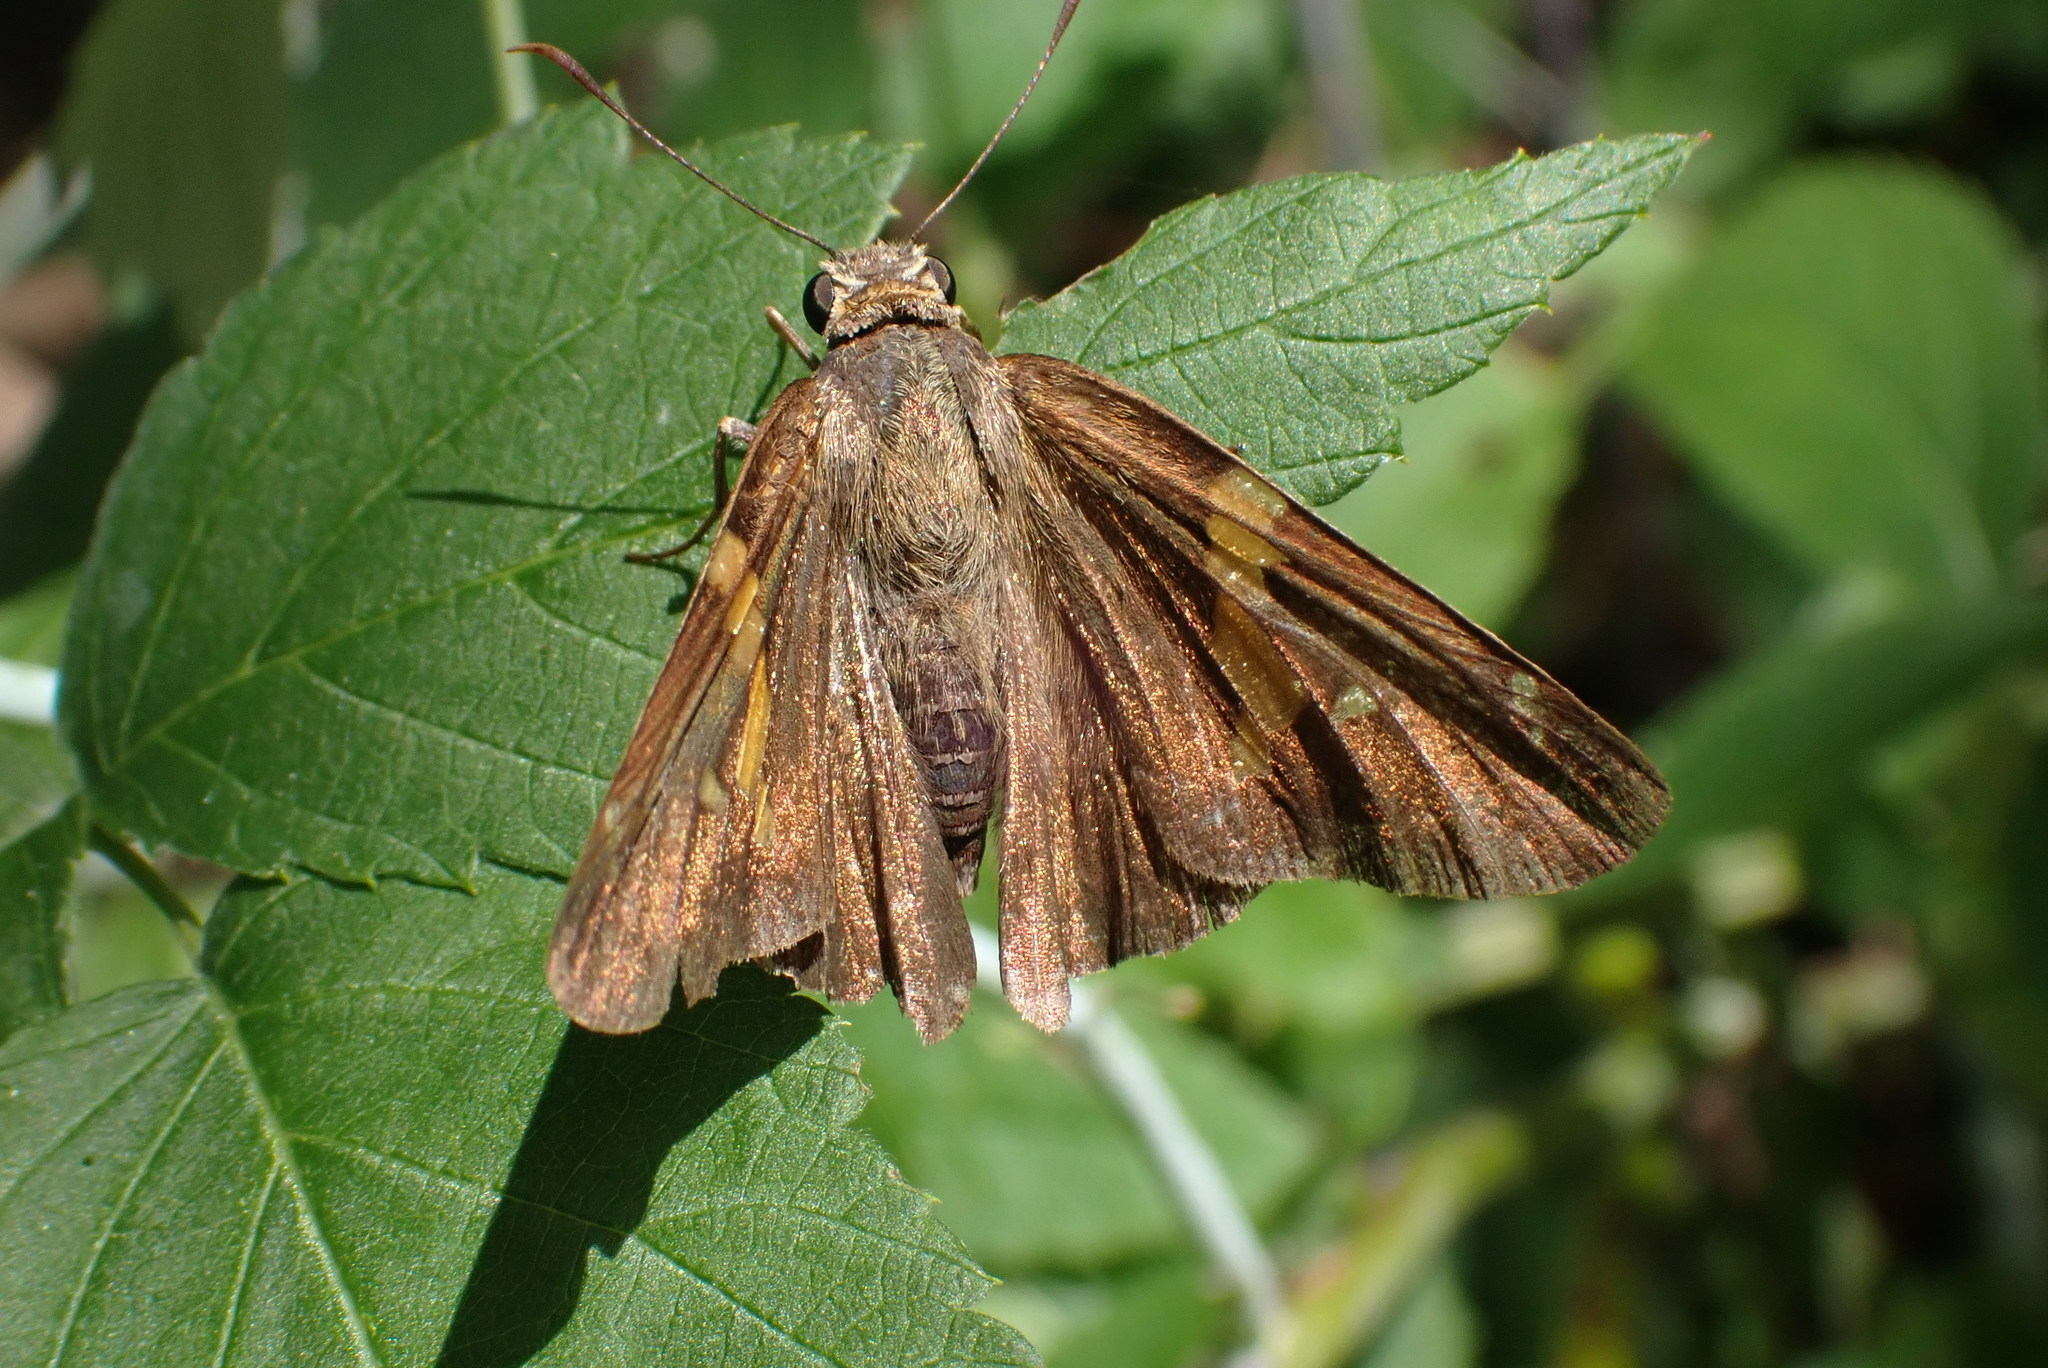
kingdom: Animalia
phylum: Arthropoda
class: Insecta
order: Lepidoptera
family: Hesperiidae
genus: Epargyreus
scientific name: Epargyreus clarus
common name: Silver-spotted skipper
